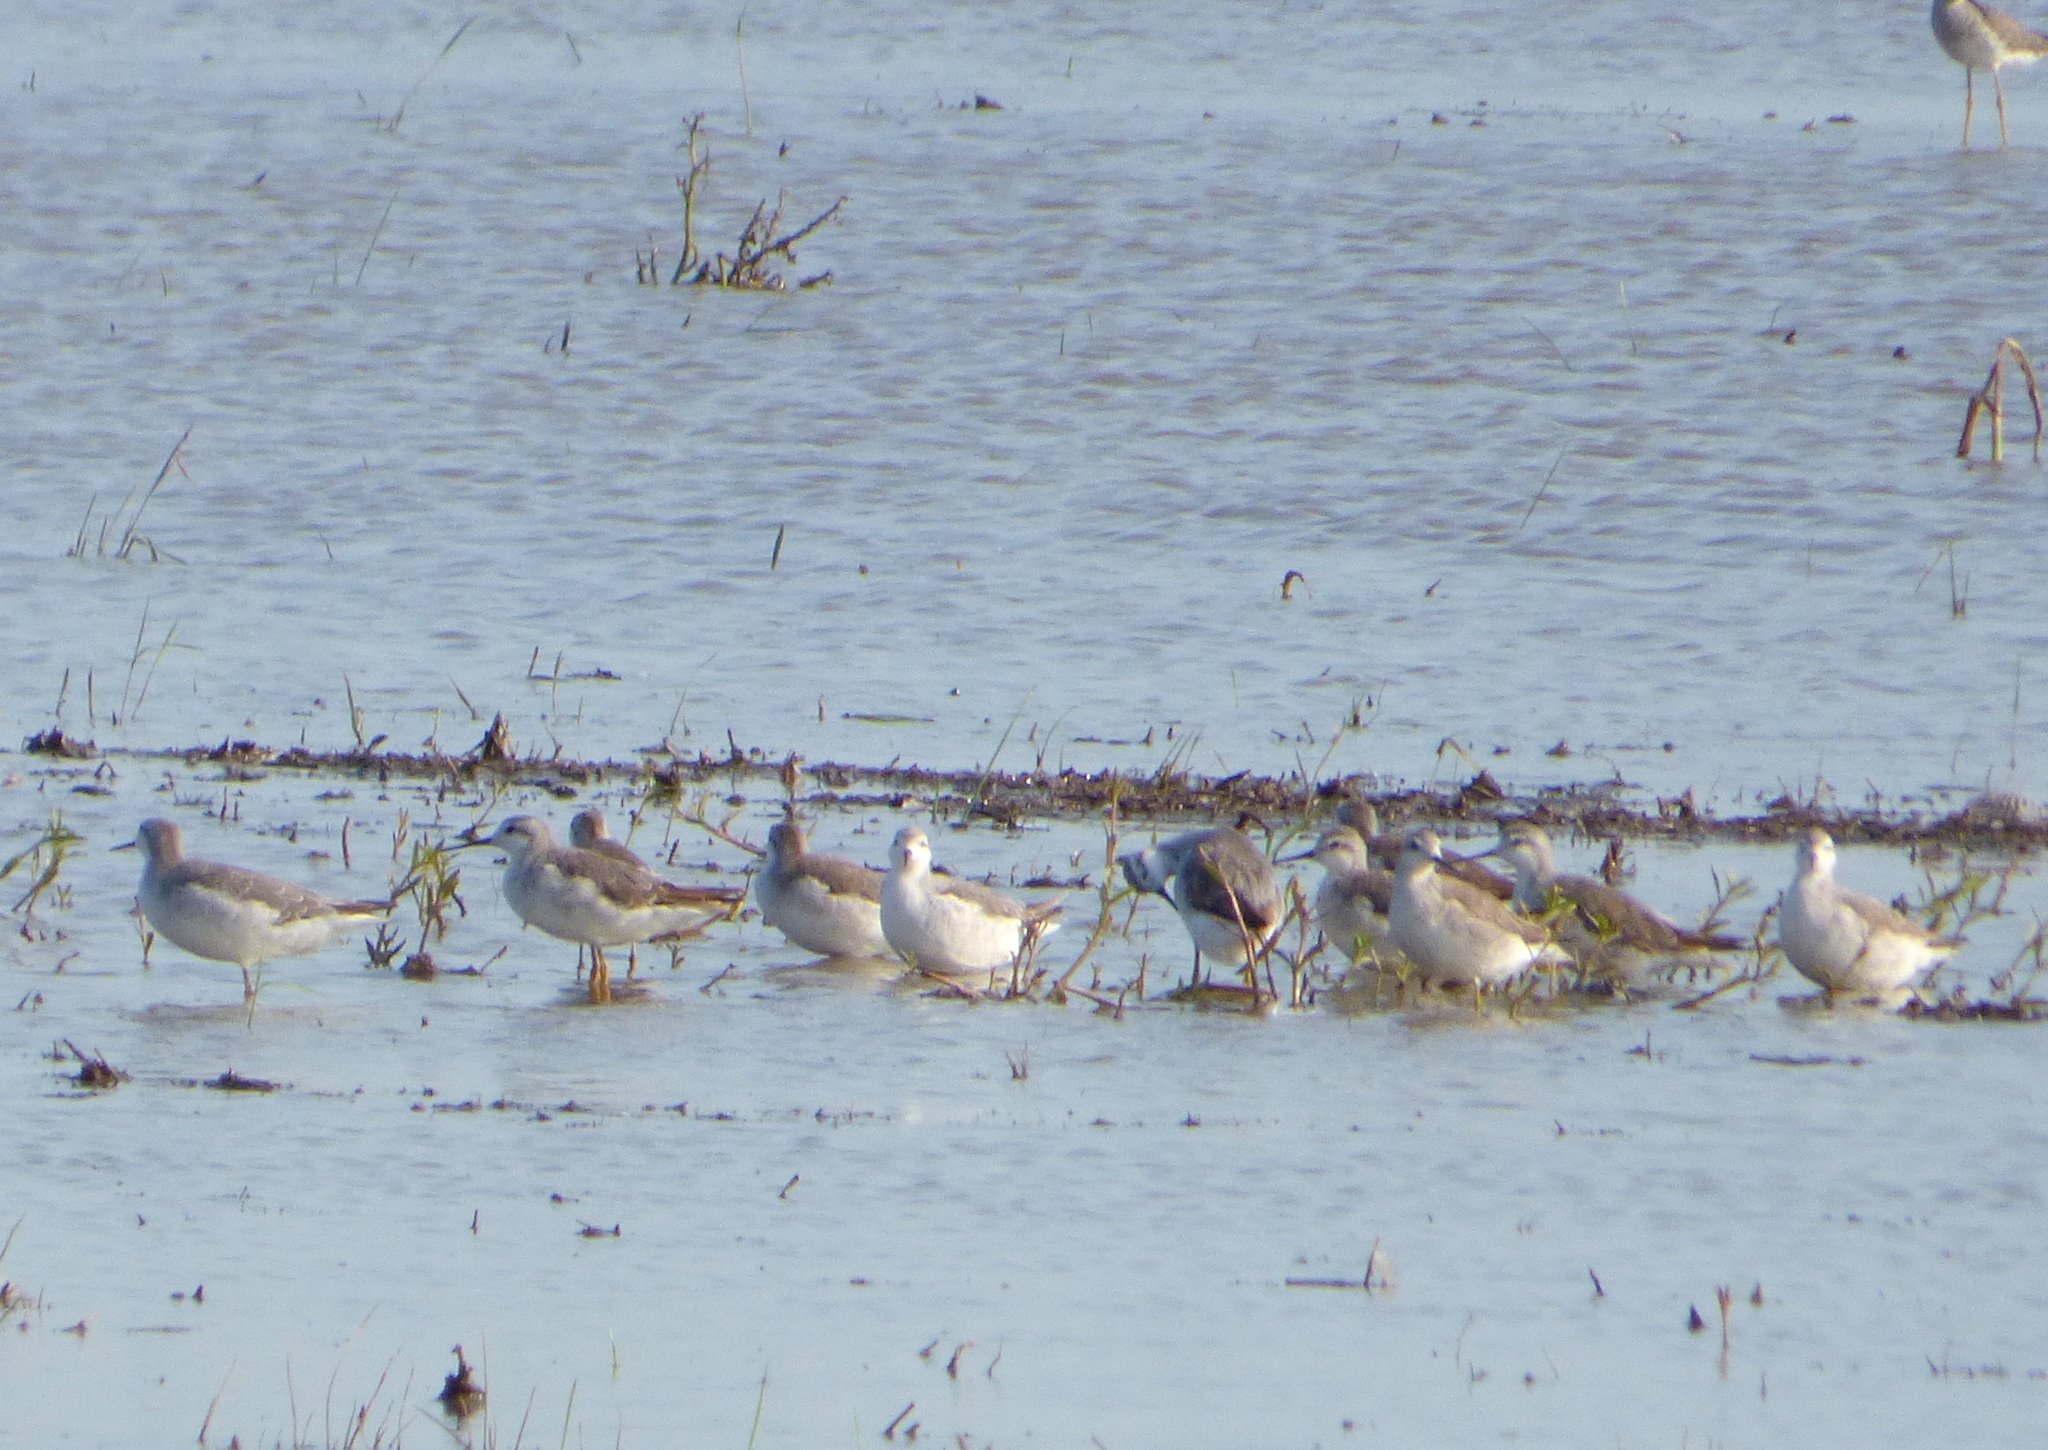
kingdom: Animalia
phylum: Chordata
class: Aves
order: Charadriiformes
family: Scolopacidae
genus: Phalaropus
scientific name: Phalaropus tricolor
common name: Wilson's phalarope
